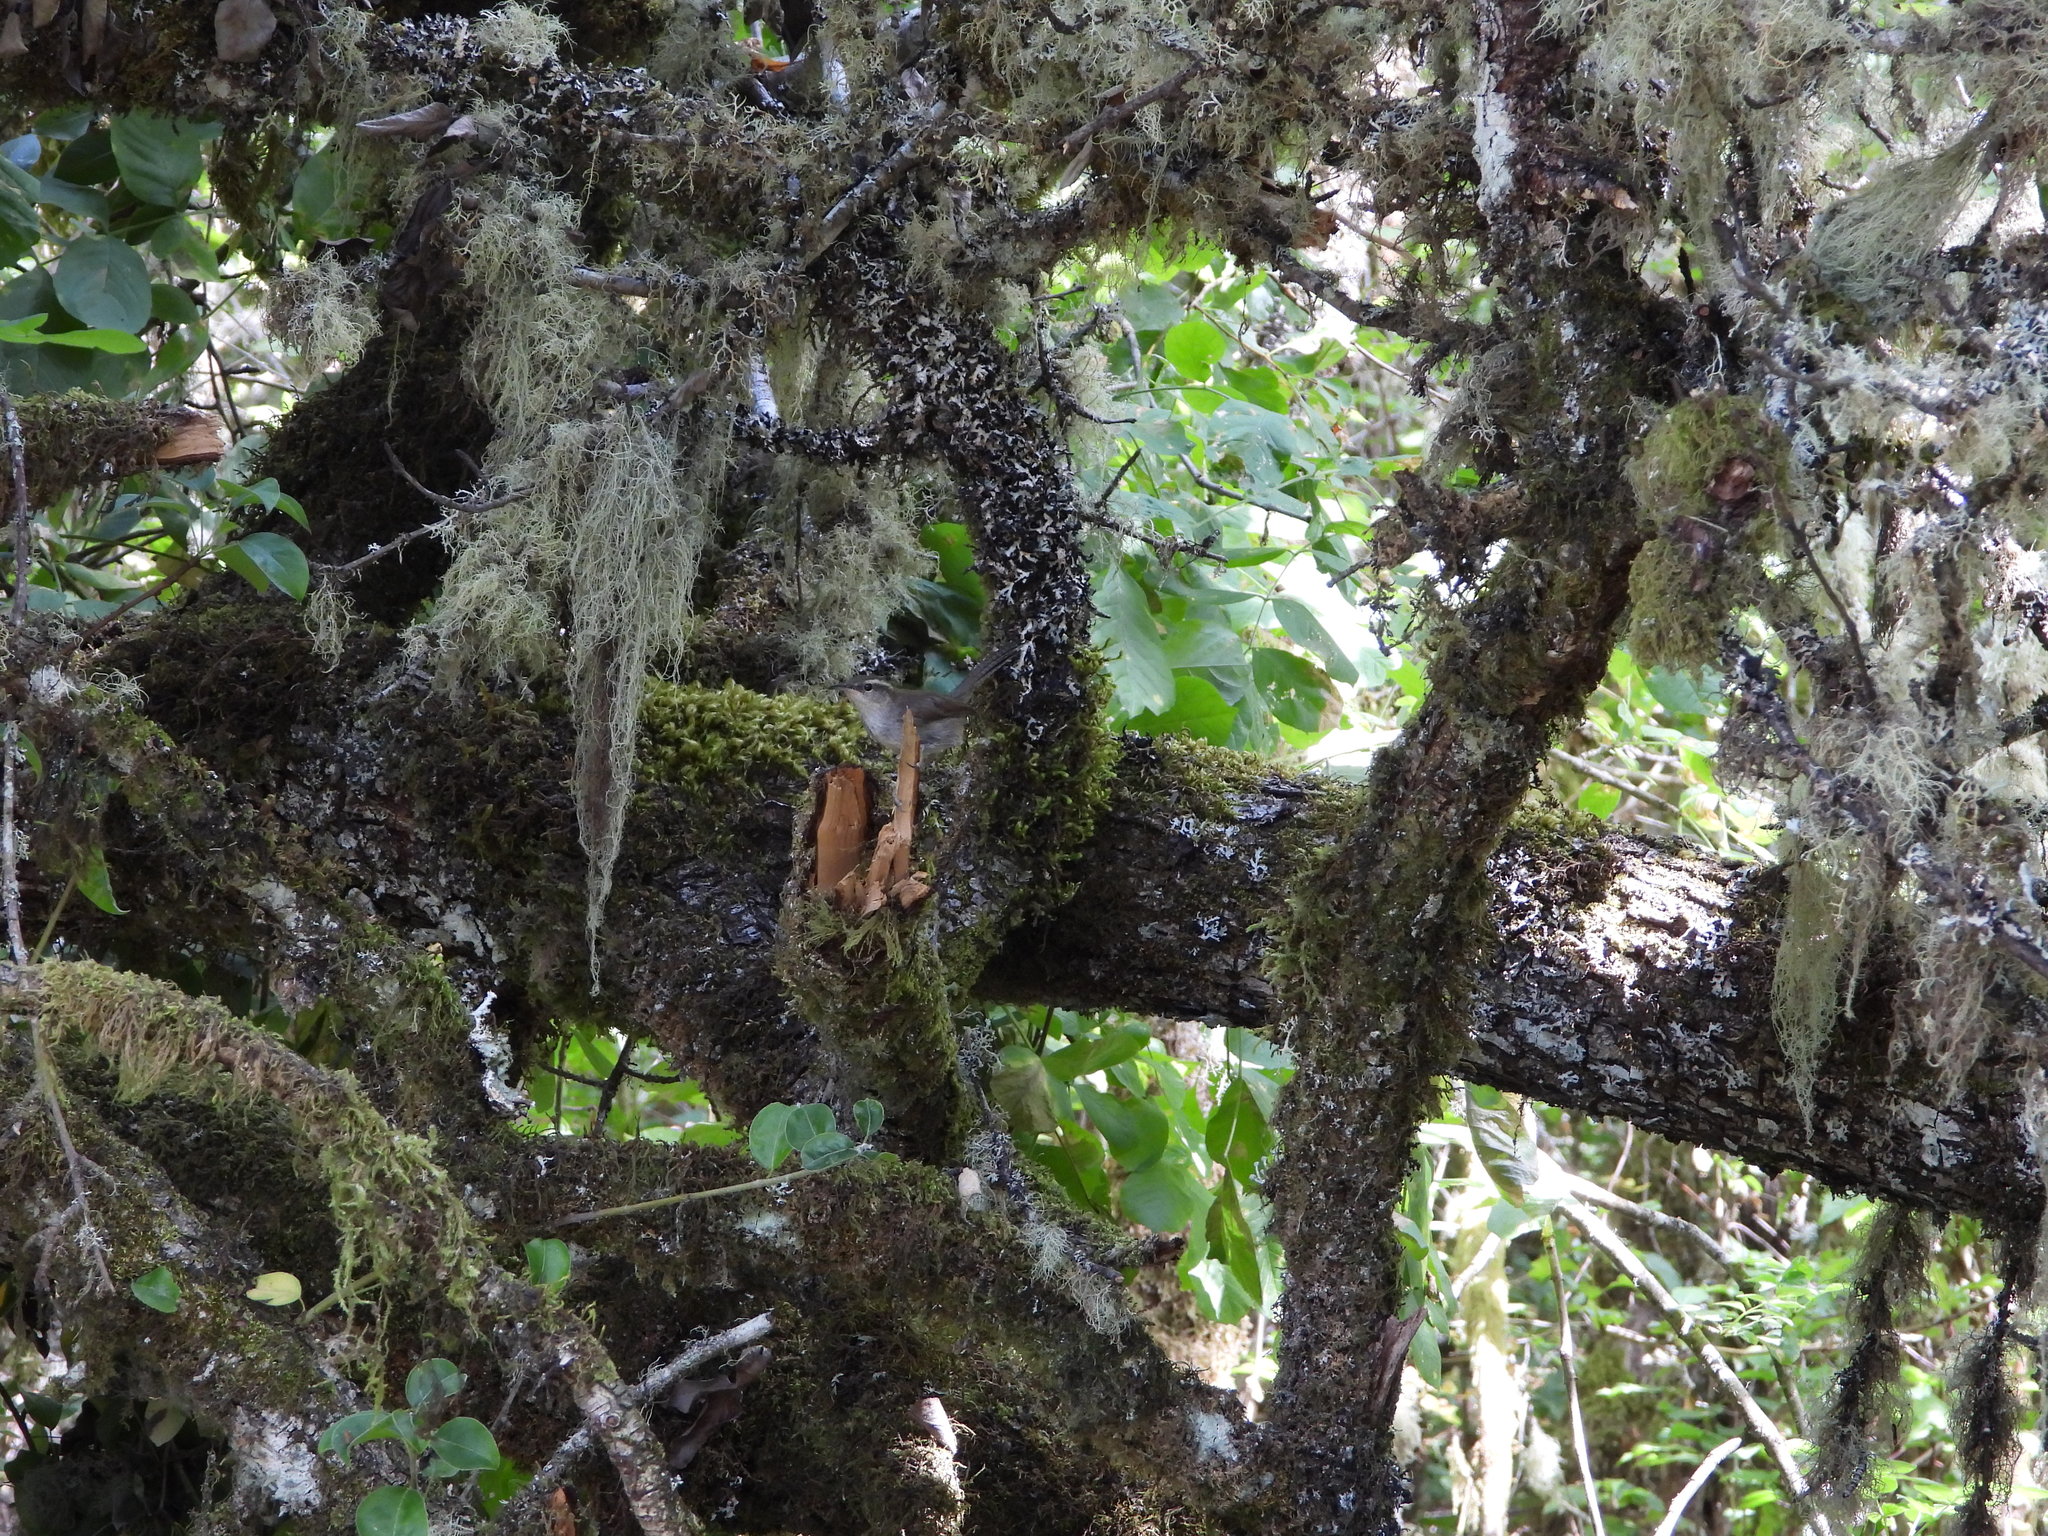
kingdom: Animalia
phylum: Chordata
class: Aves
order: Passeriformes
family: Troglodytidae
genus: Thryomanes
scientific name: Thryomanes bewickii
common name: Bewick's wren
